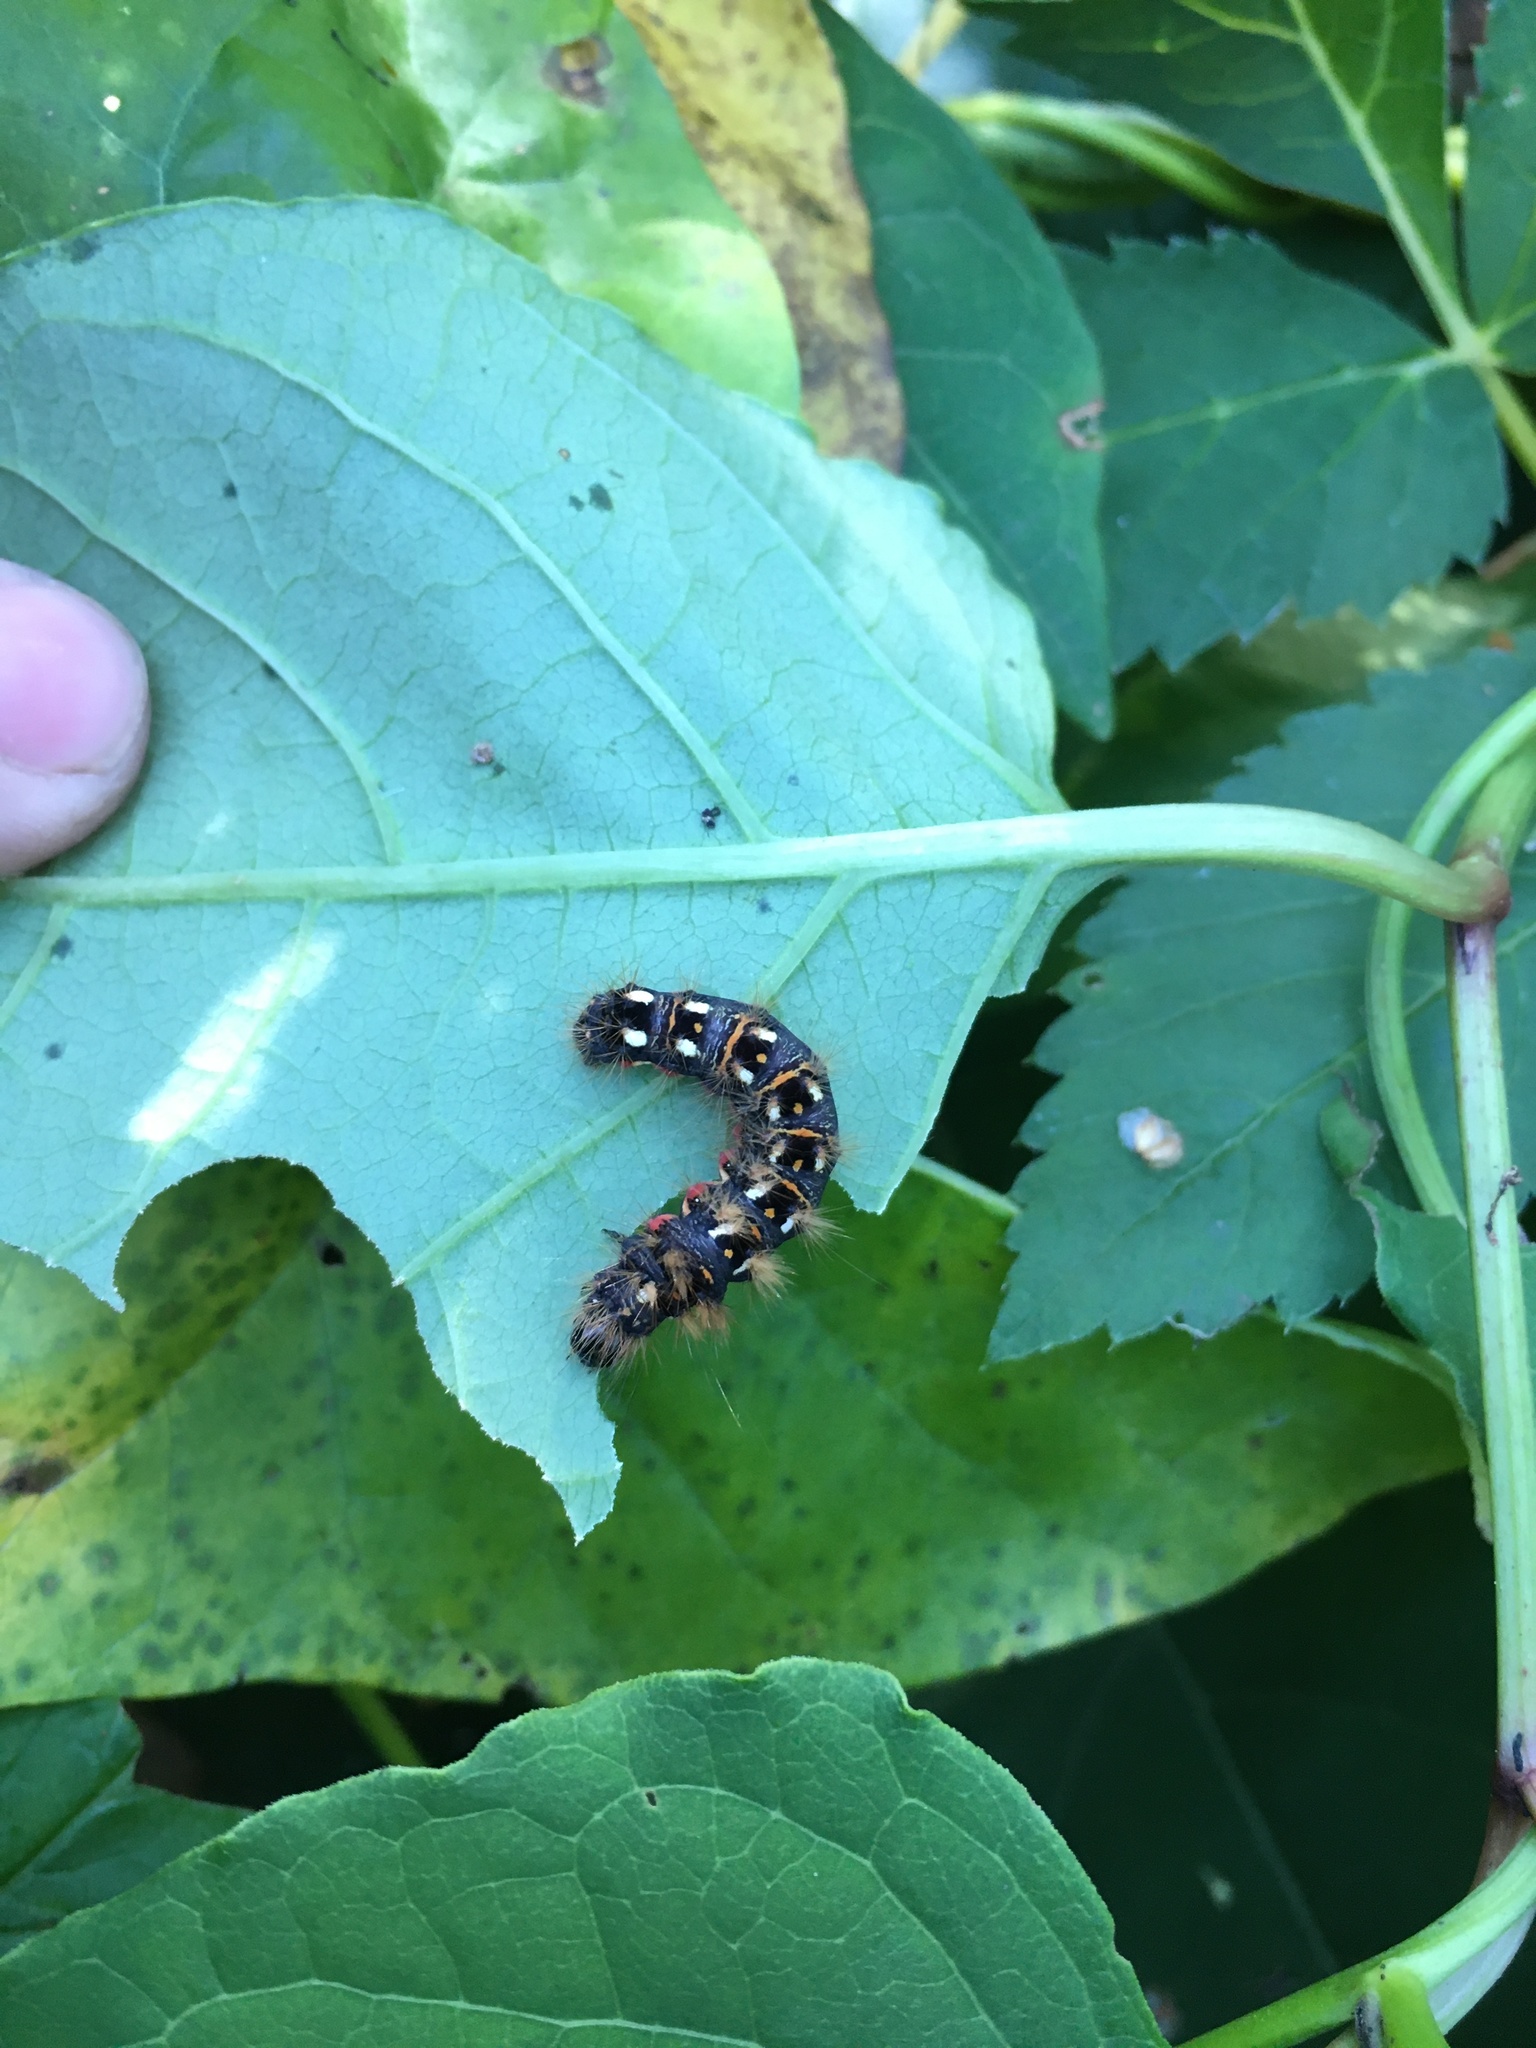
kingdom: Animalia
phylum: Arthropoda
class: Insecta
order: Lepidoptera
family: Noctuidae
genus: Acronicta
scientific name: Acronicta rumicis
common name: Knot grass
